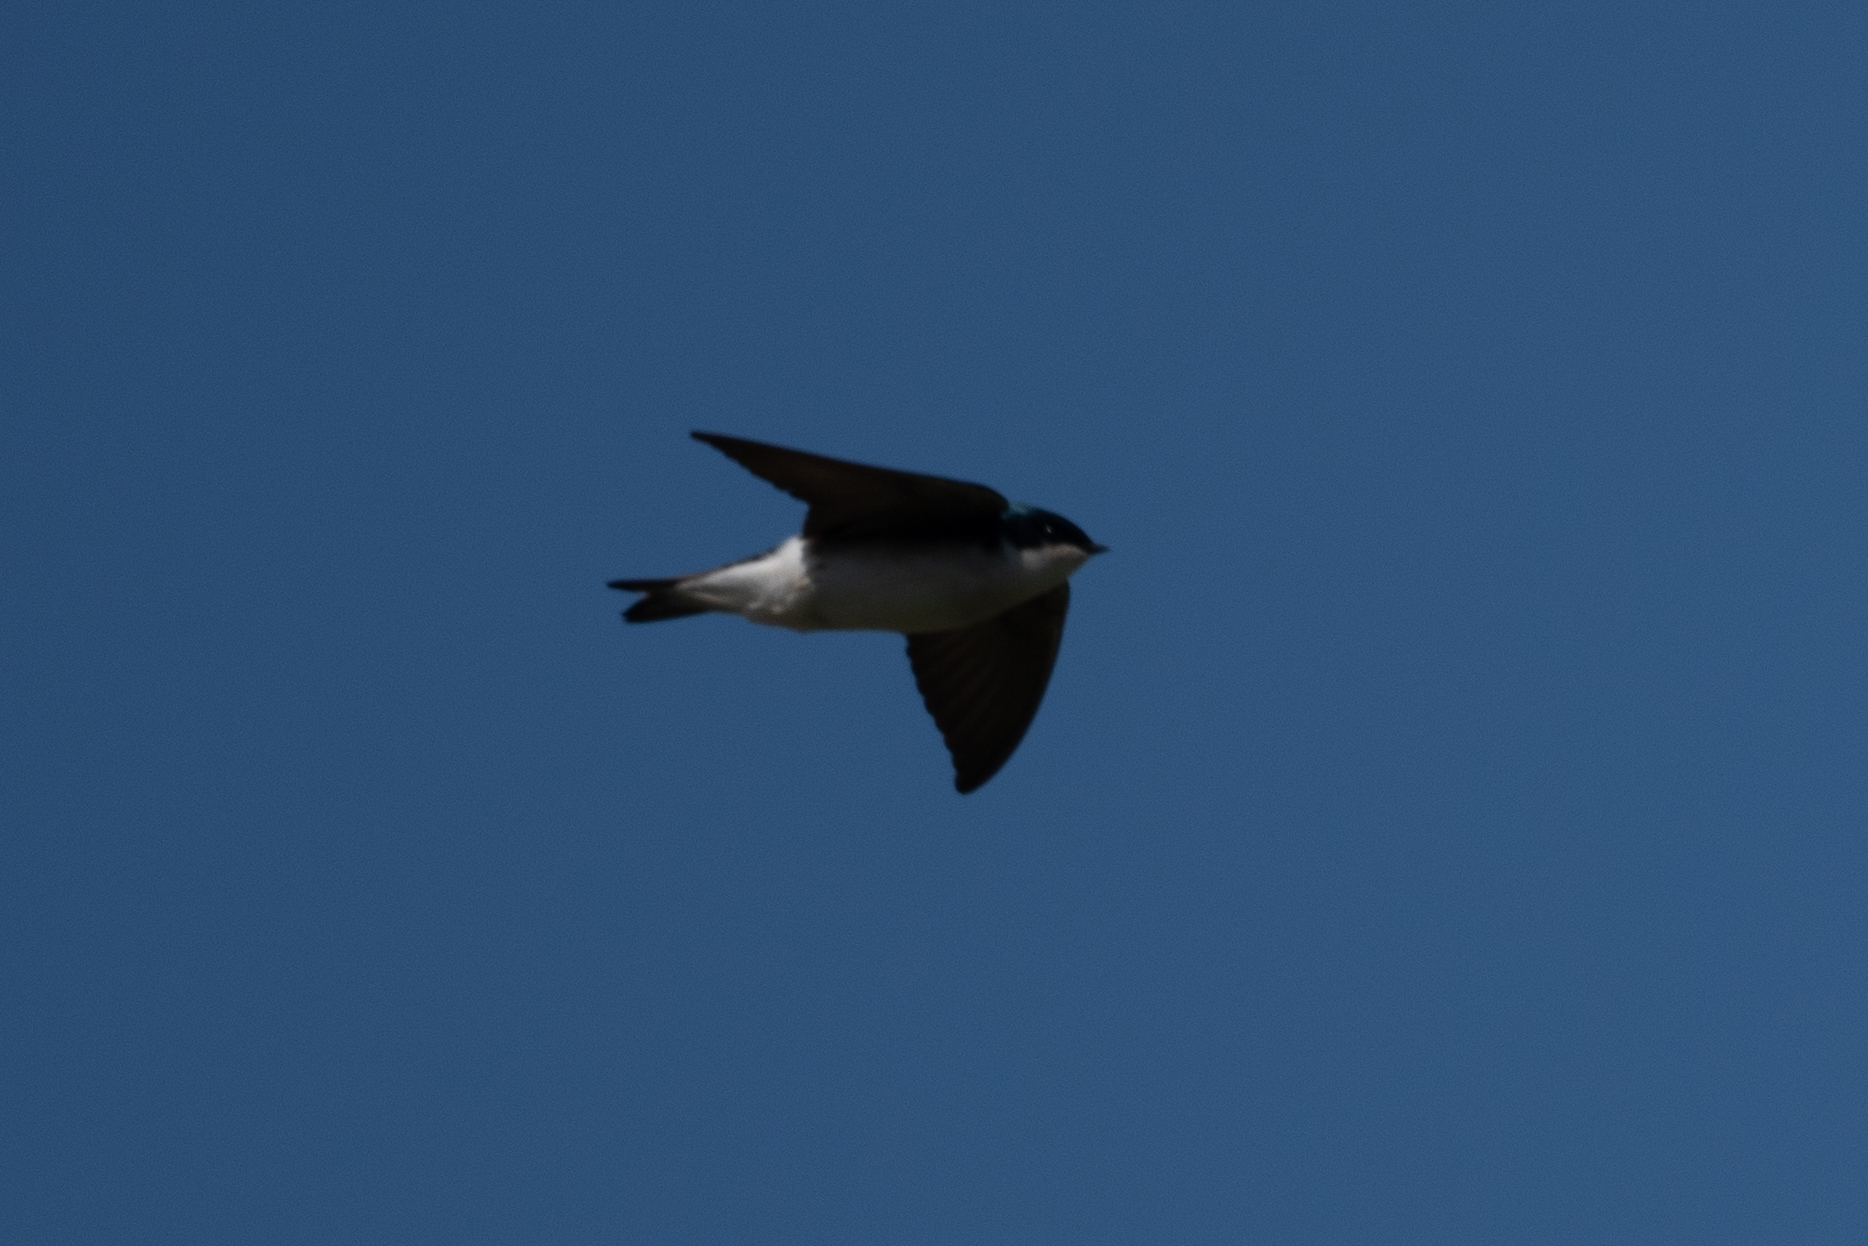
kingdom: Animalia
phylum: Chordata
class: Aves
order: Passeriformes
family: Hirundinidae
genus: Tachycineta
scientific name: Tachycineta bicolor
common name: Tree swallow
